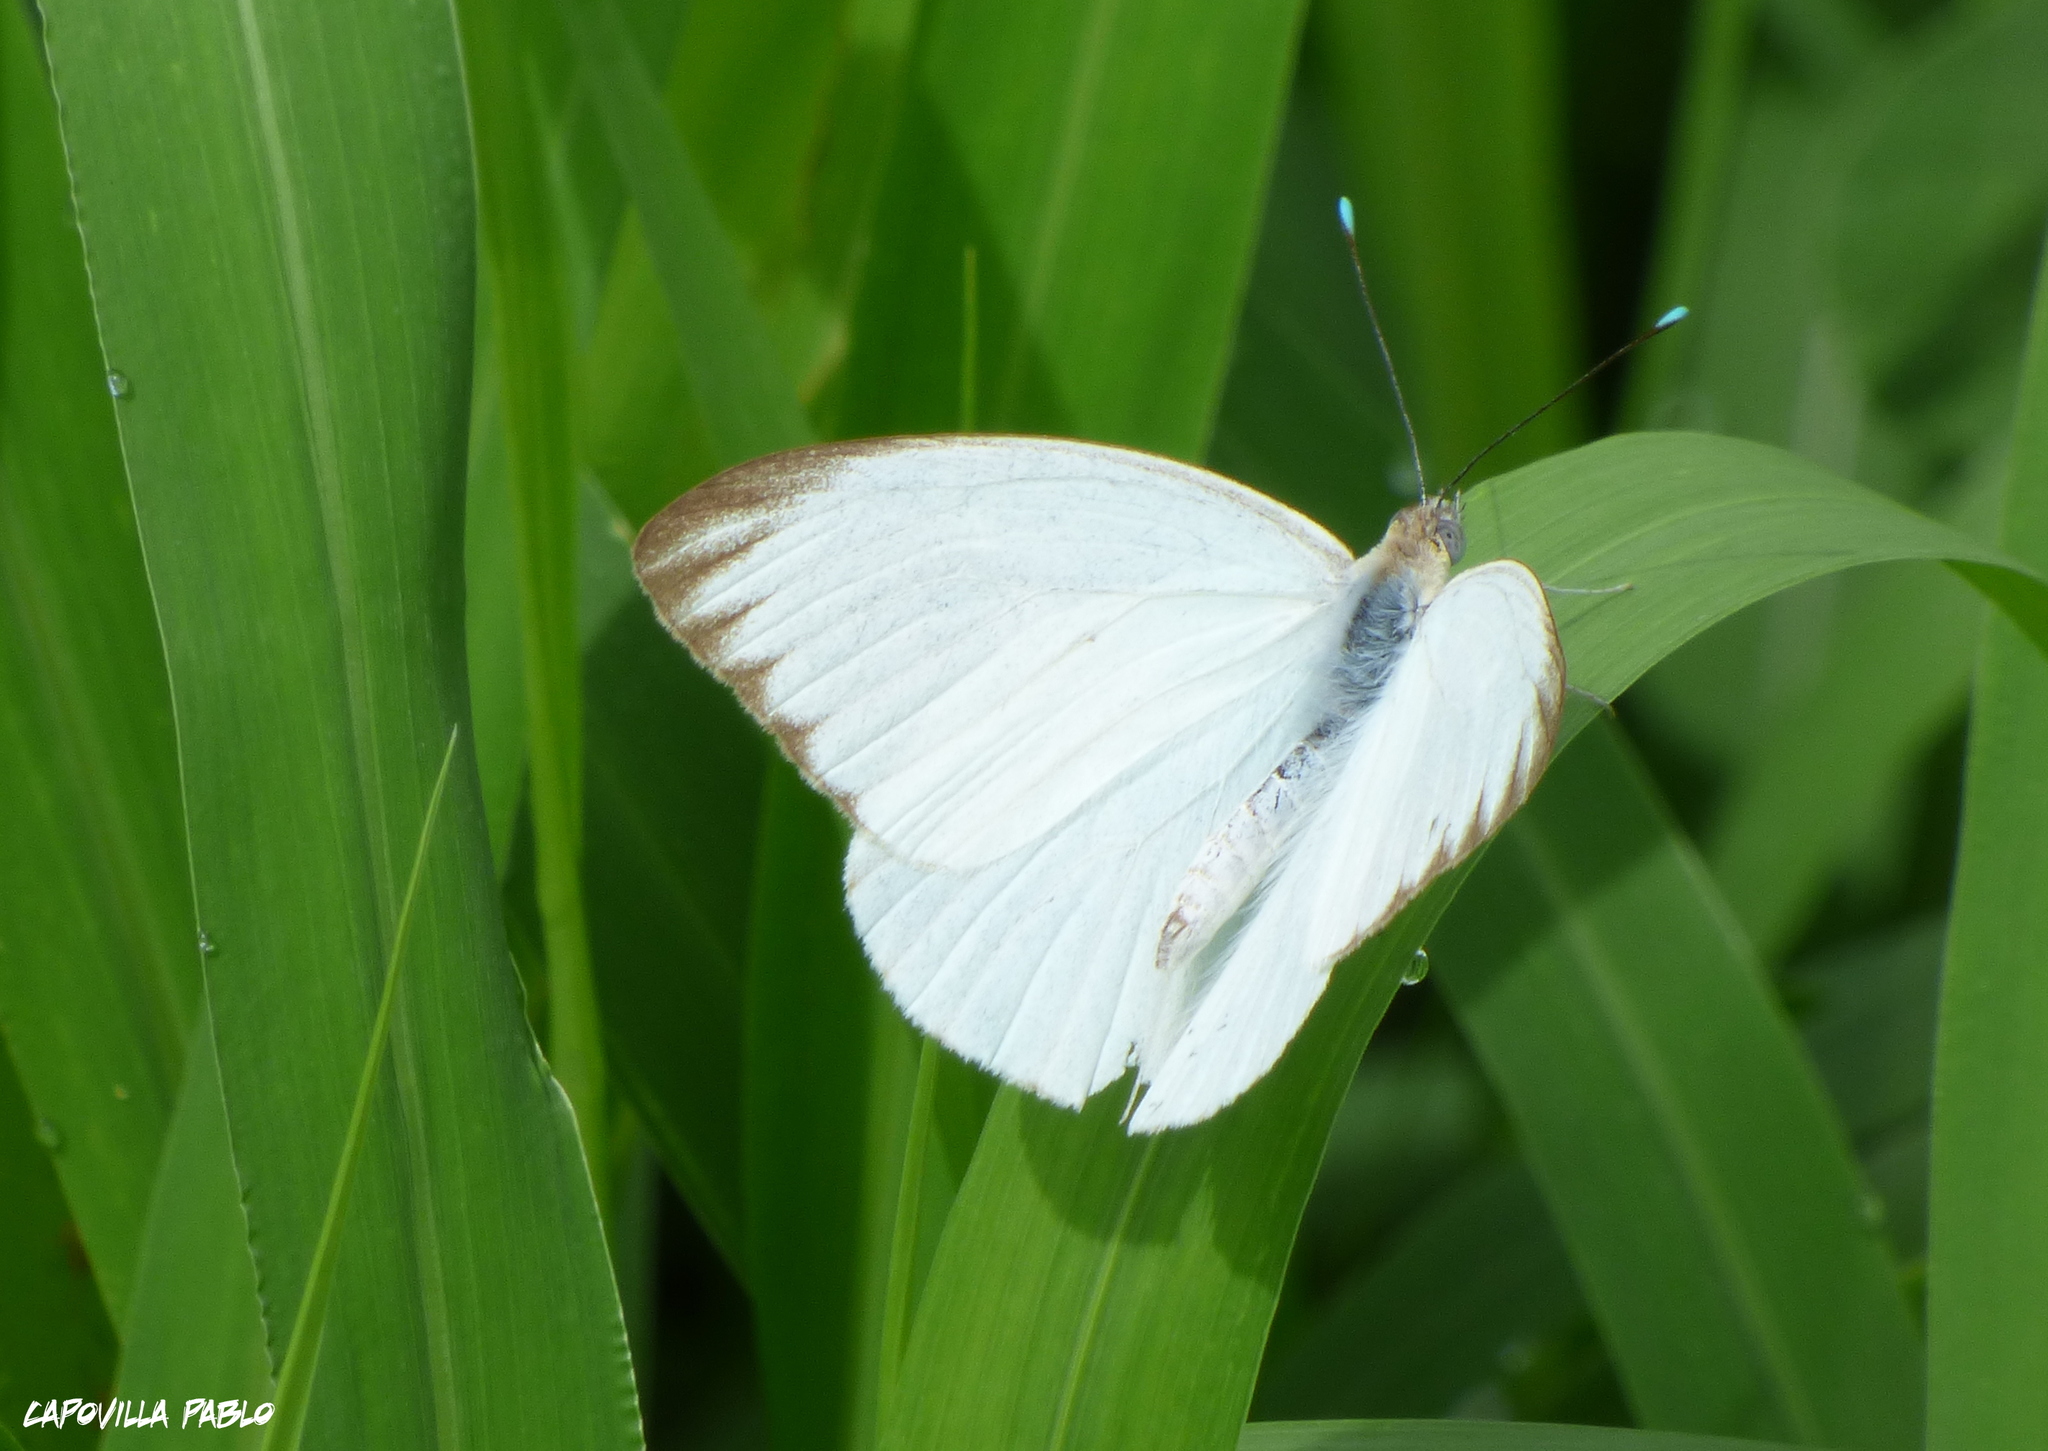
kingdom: Animalia
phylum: Arthropoda
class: Insecta
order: Lepidoptera
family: Pieridae
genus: Ascia
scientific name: Ascia monuste
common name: Great southern white
